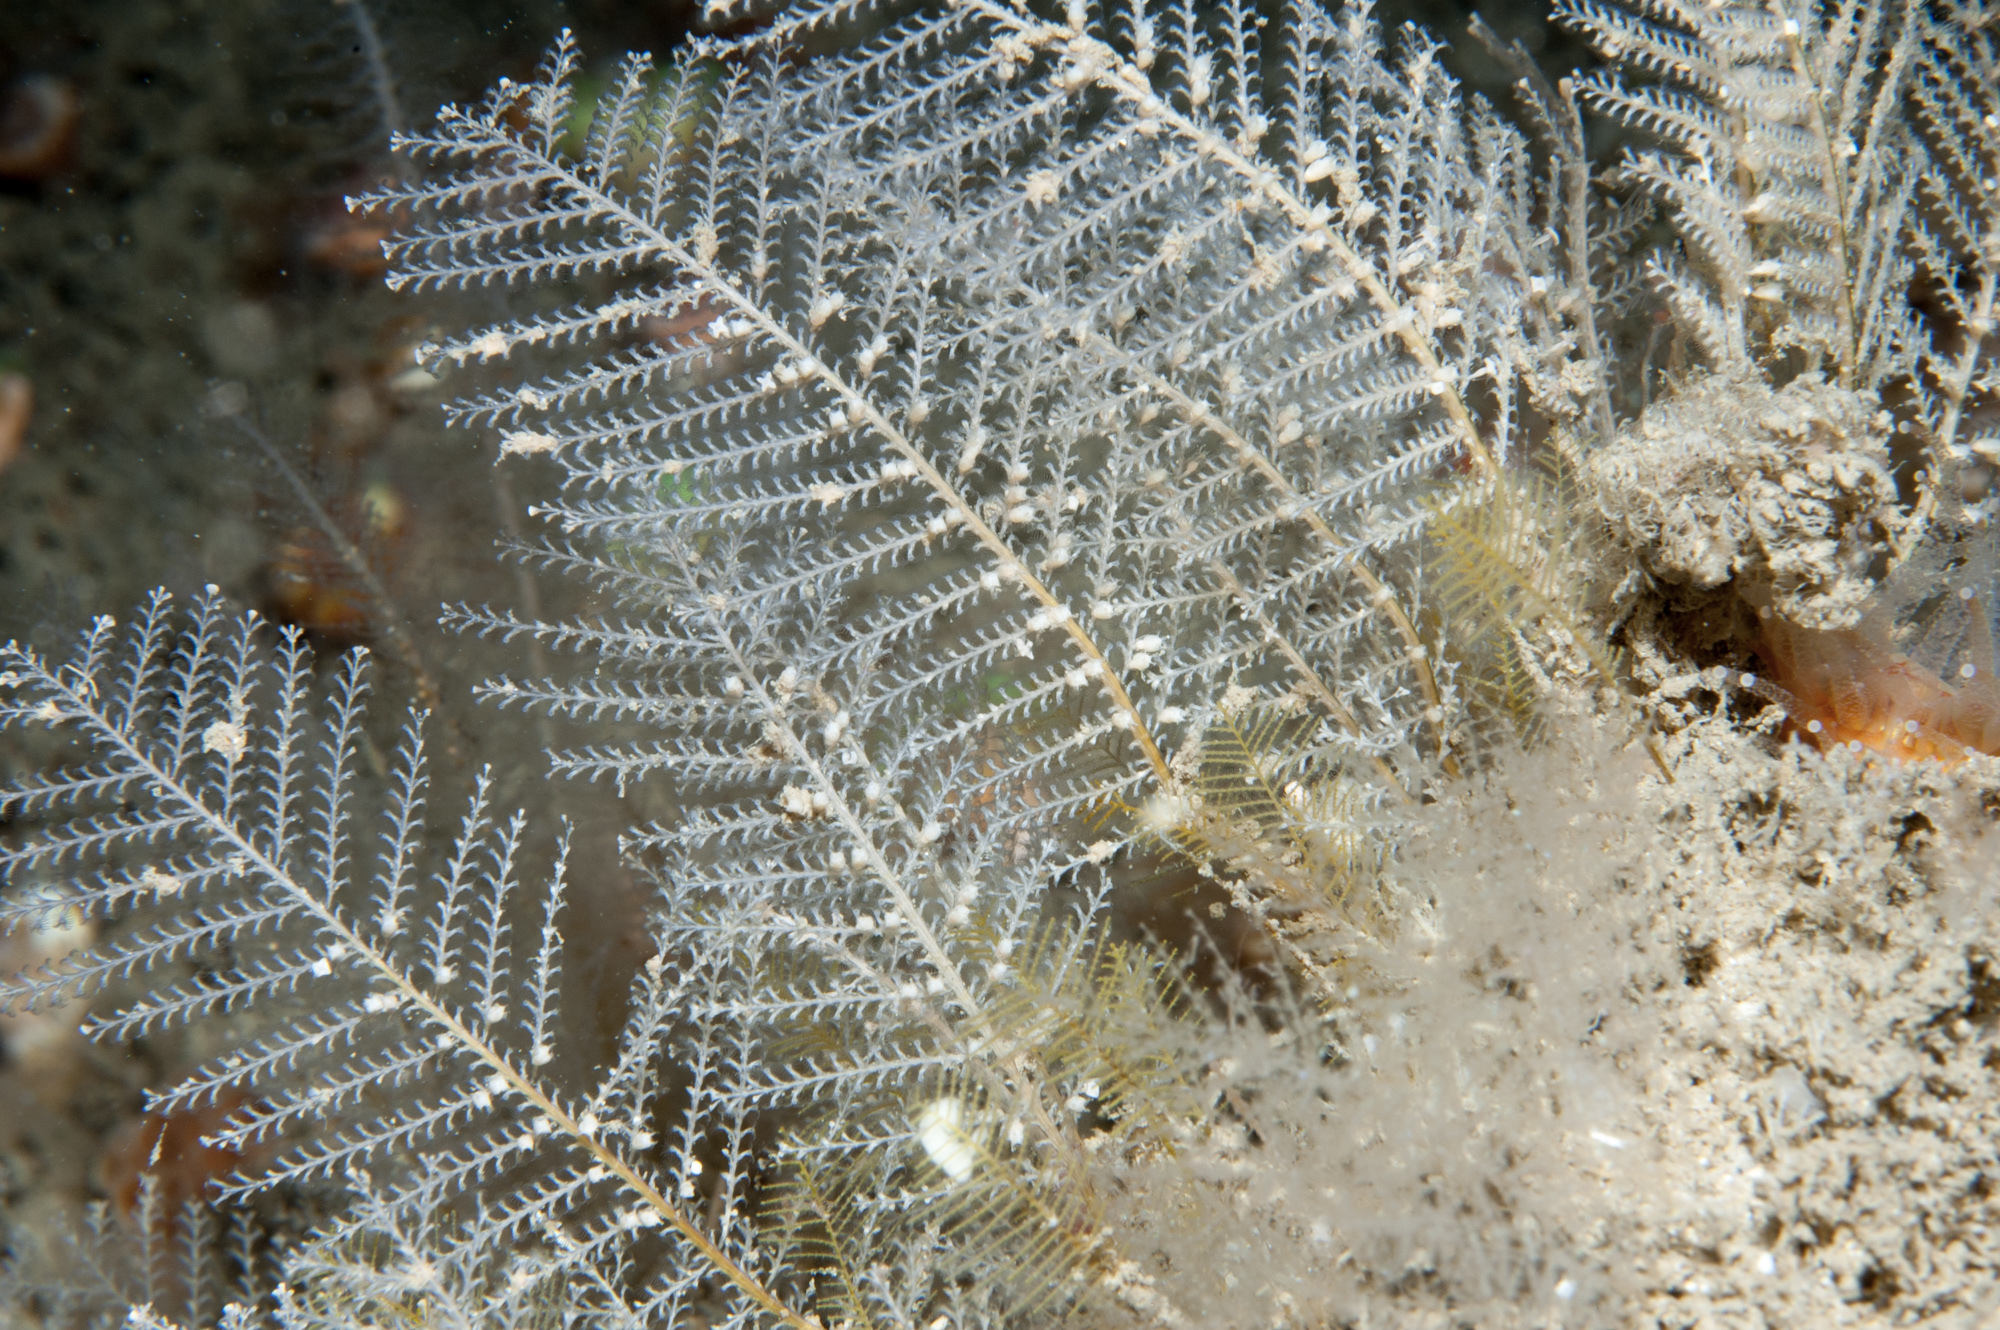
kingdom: Animalia
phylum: Cnidaria
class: Hydrozoa
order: Leptothecata
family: Sertulariidae
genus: Diphasia
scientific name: Diphasia margareta
